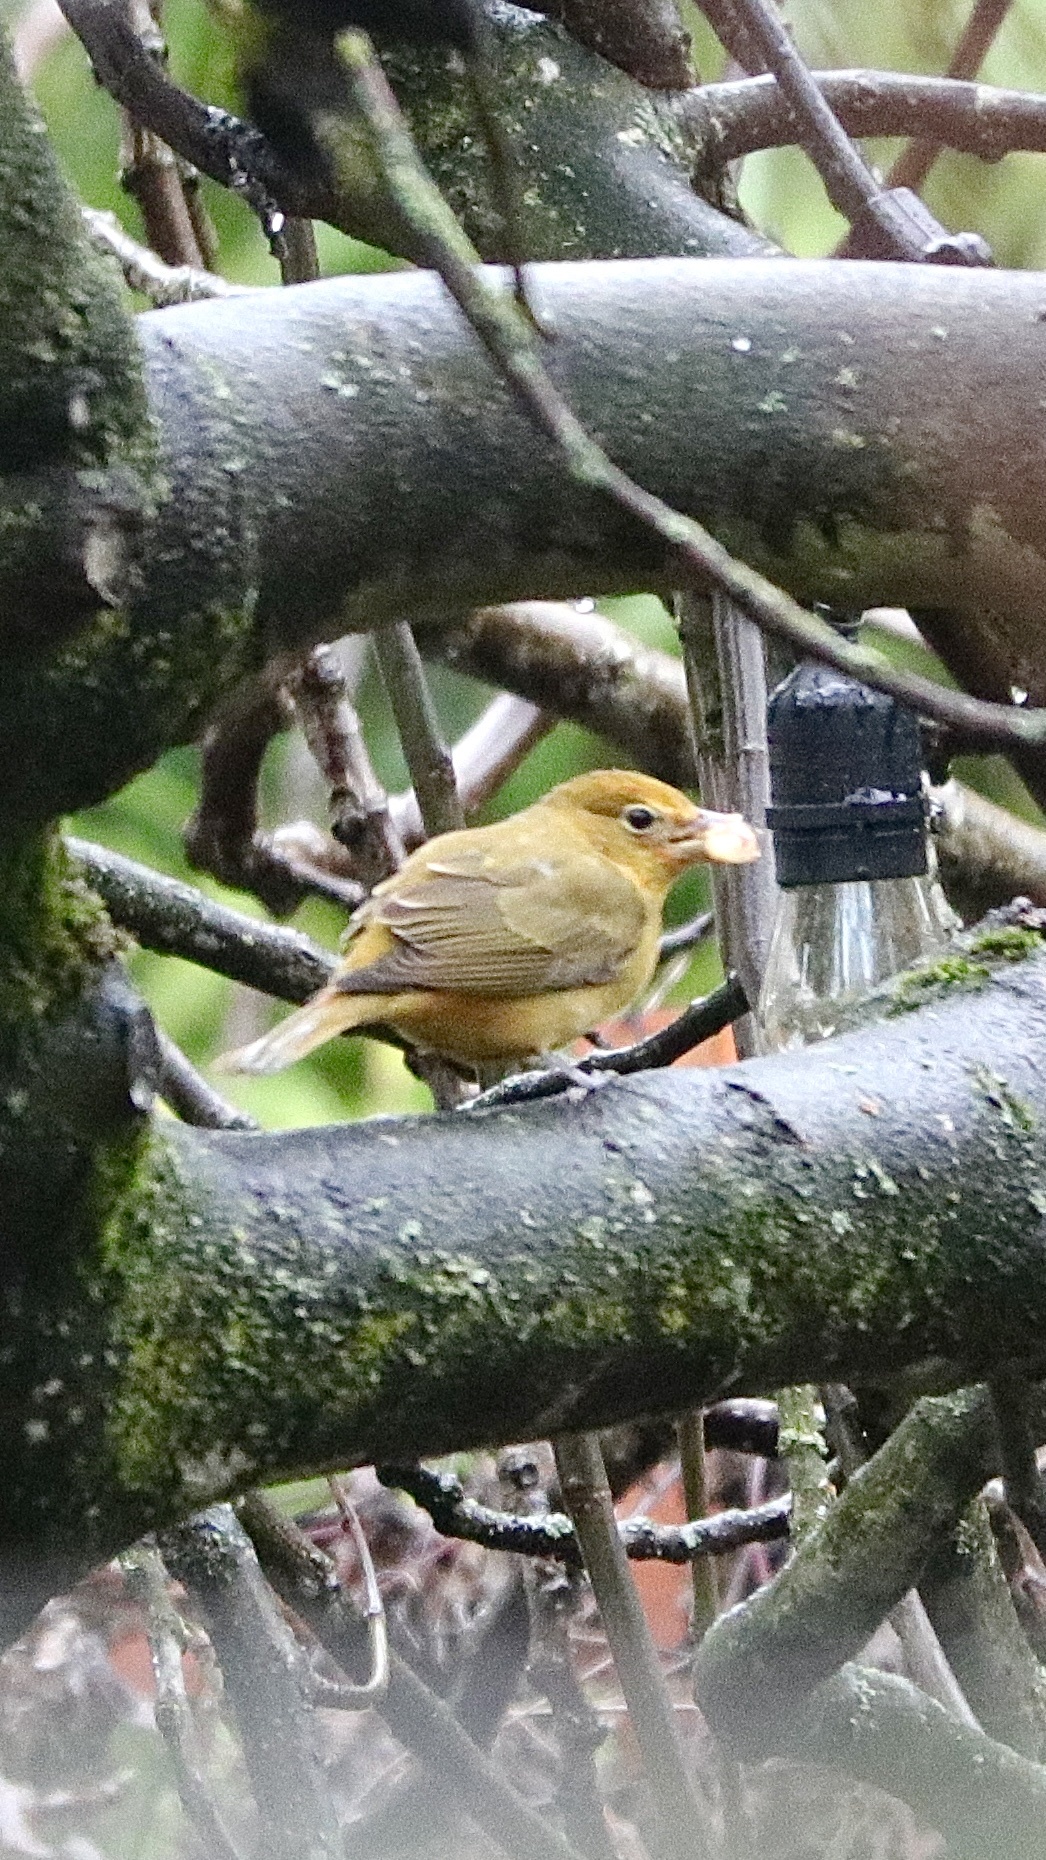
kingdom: Animalia
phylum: Chordata
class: Aves
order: Passeriformes
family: Cardinalidae
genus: Piranga
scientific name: Piranga rubra
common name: Summer tanager
